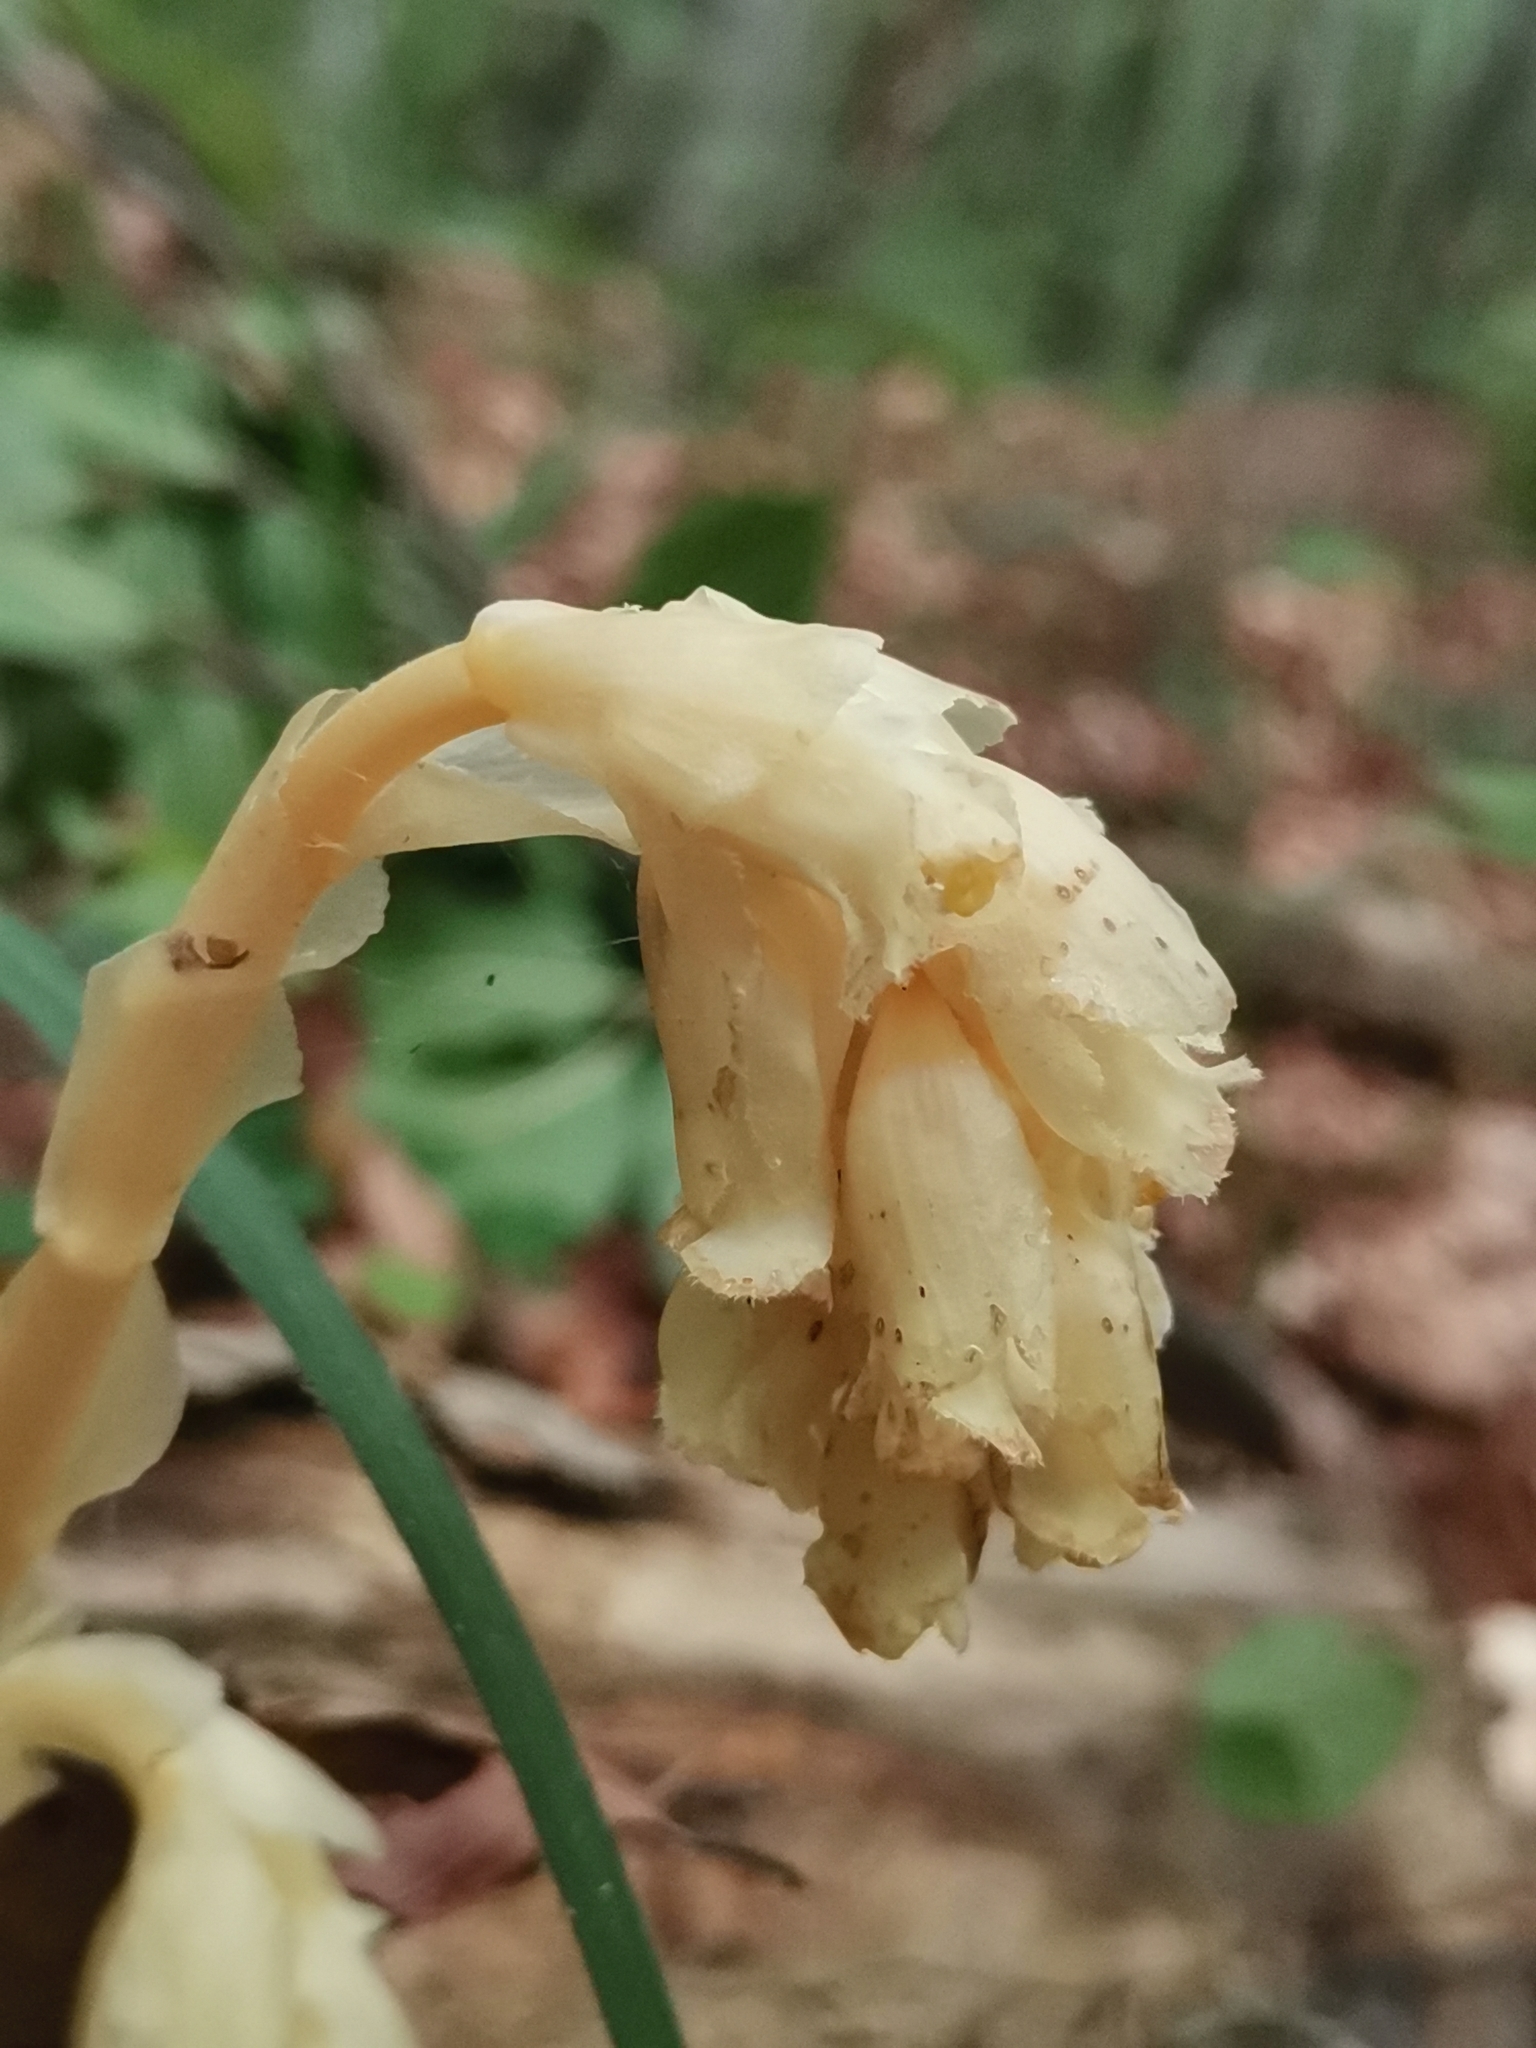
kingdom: Plantae
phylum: Tracheophyta
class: Magnoliopsida
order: Ericales
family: Ericaceae
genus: Hypopitys
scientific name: Hypopitys monotropa
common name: Yellow bird's-nest
